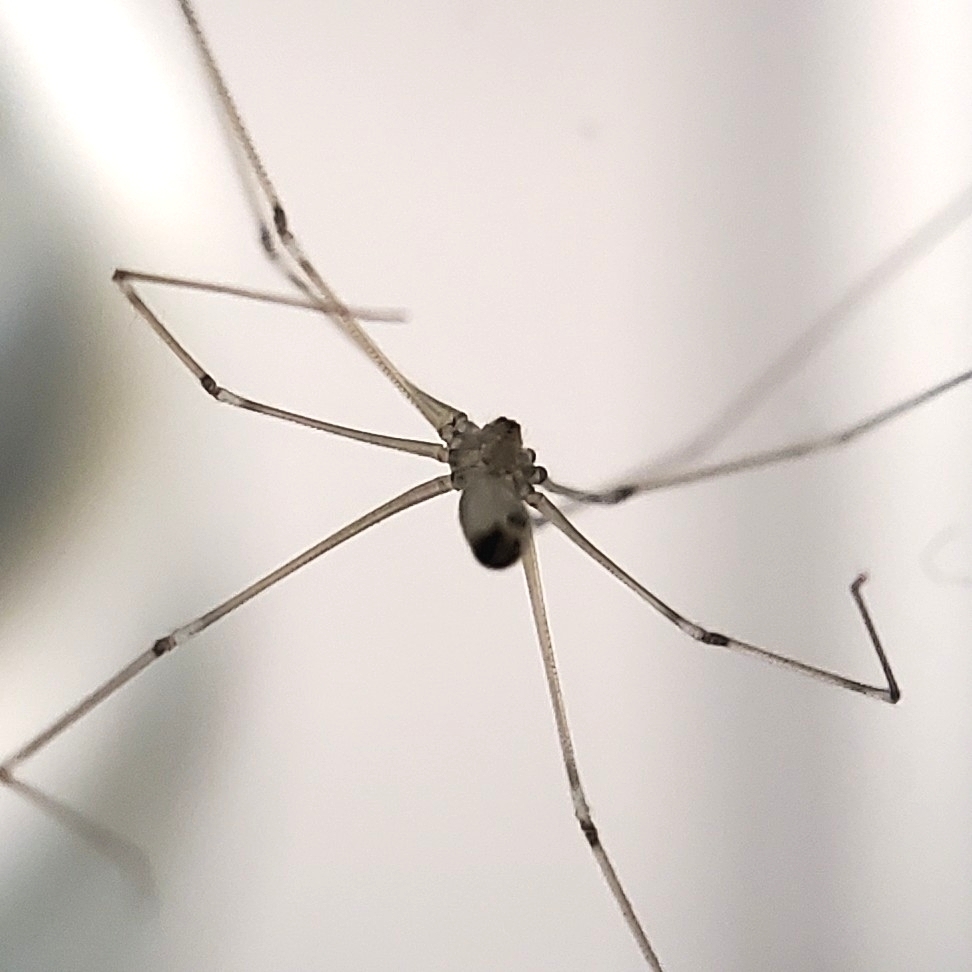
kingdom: Animalia
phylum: Arthropoda
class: Arachnida
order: Araneae
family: Pholcidae
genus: Pholcus
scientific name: Pholcus phalangioides
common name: Longbodied cellar spider
